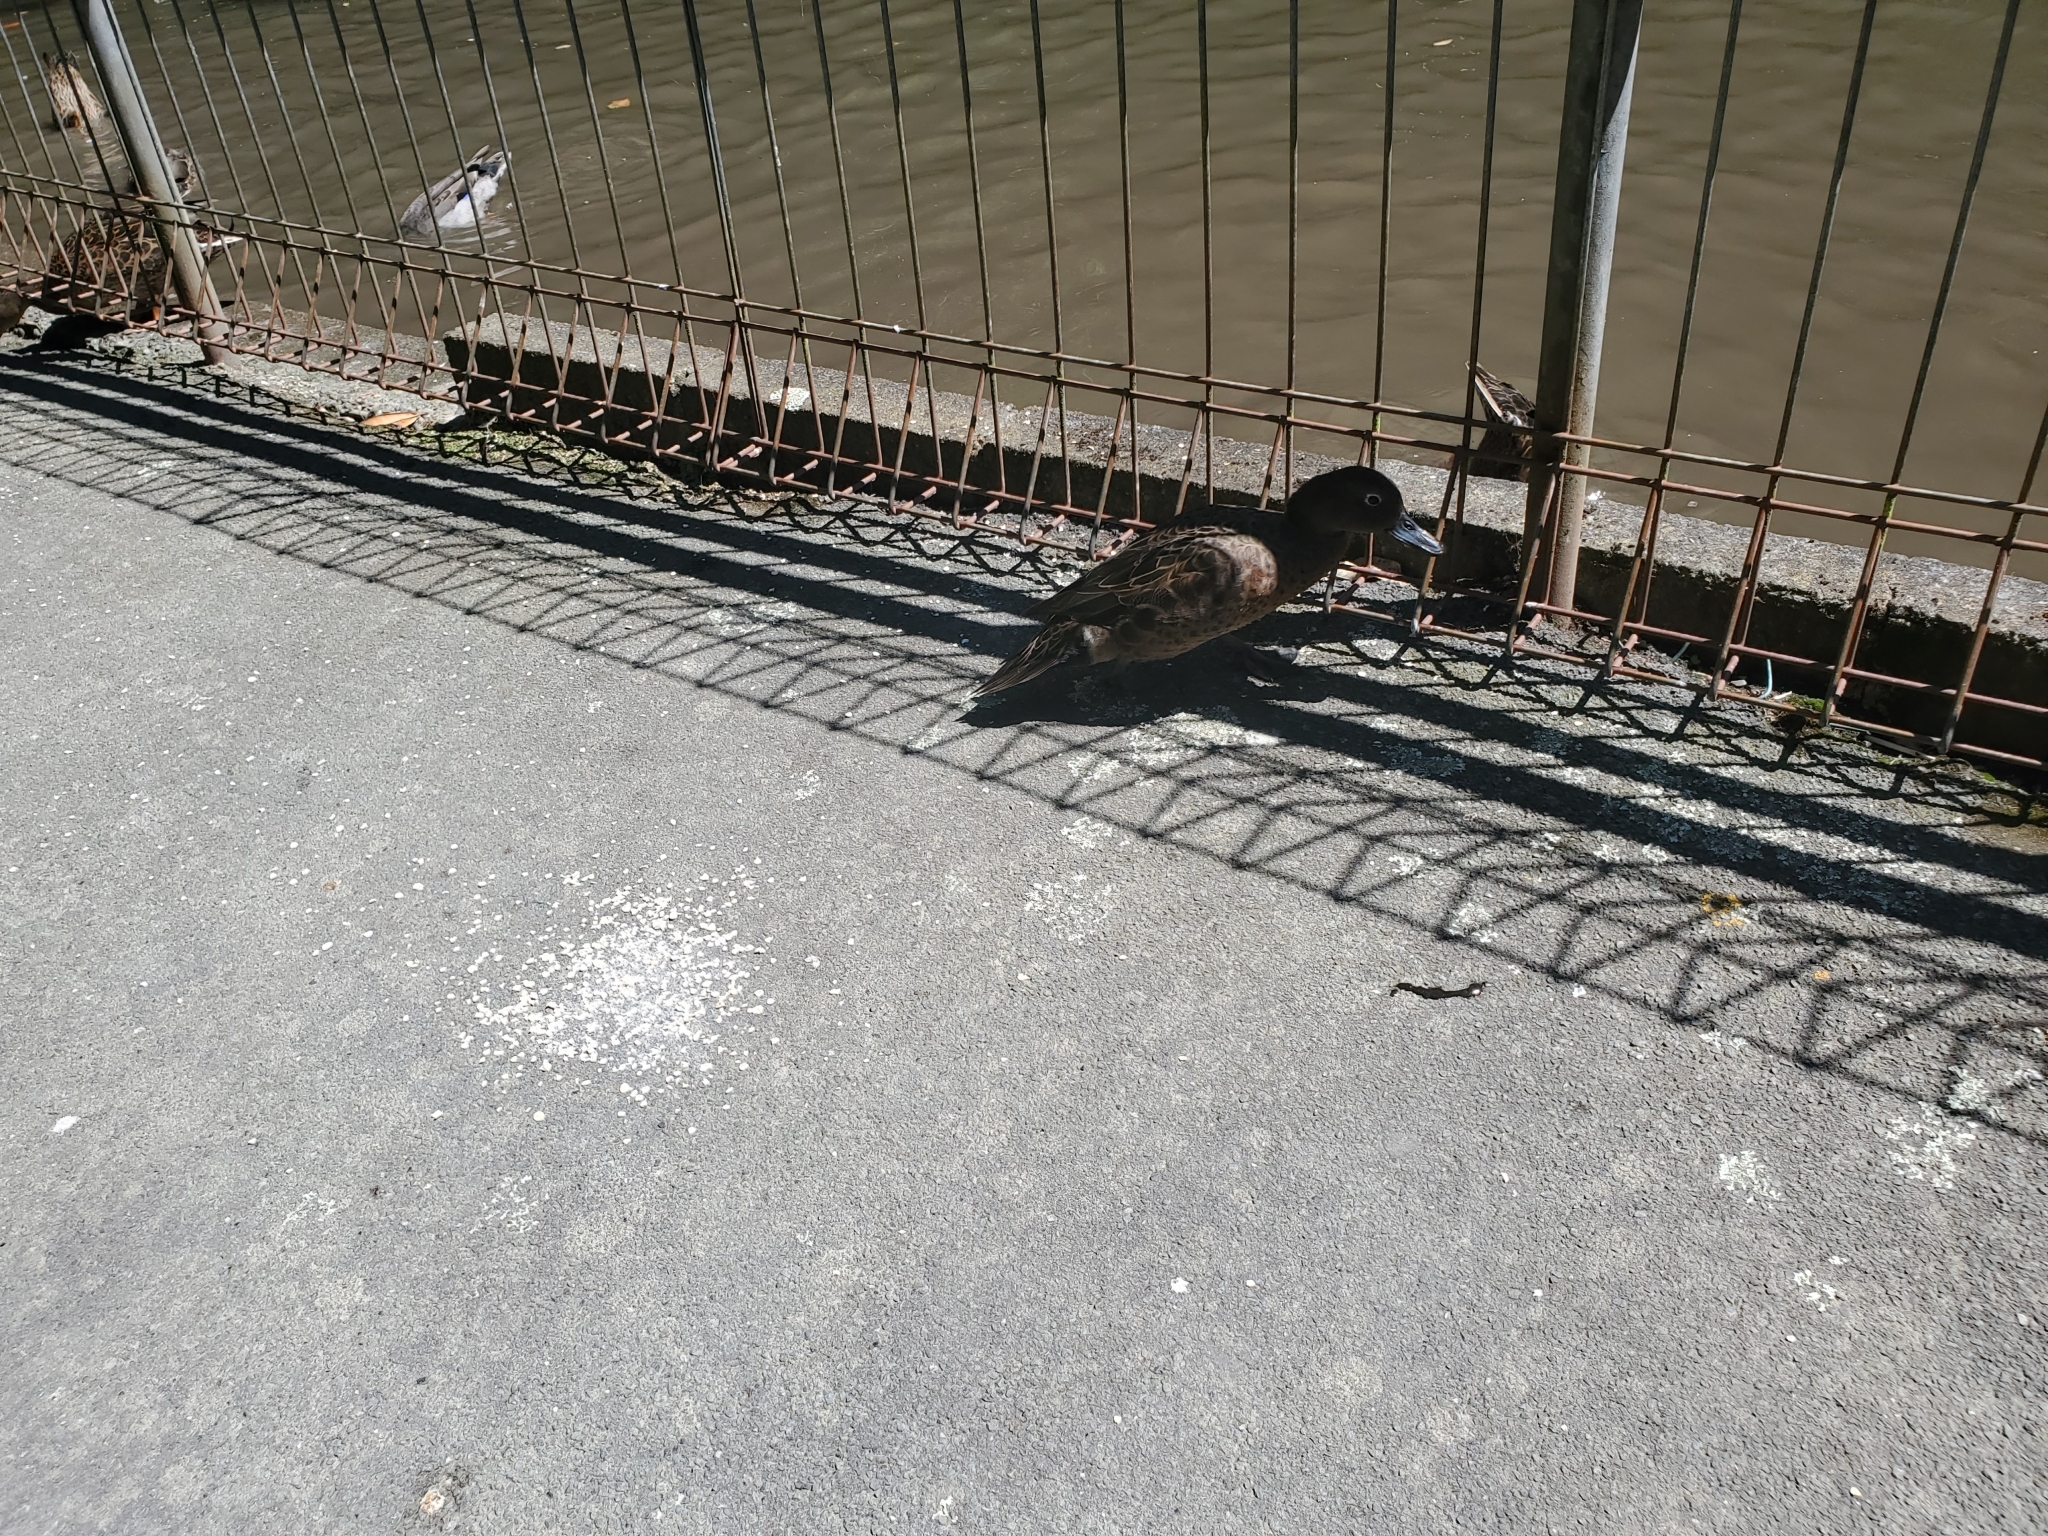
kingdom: Animalia
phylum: Chordata
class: Aves
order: Anseriformes
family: Anatidae
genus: Anas
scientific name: Anas chlorotis
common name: Brown teal
